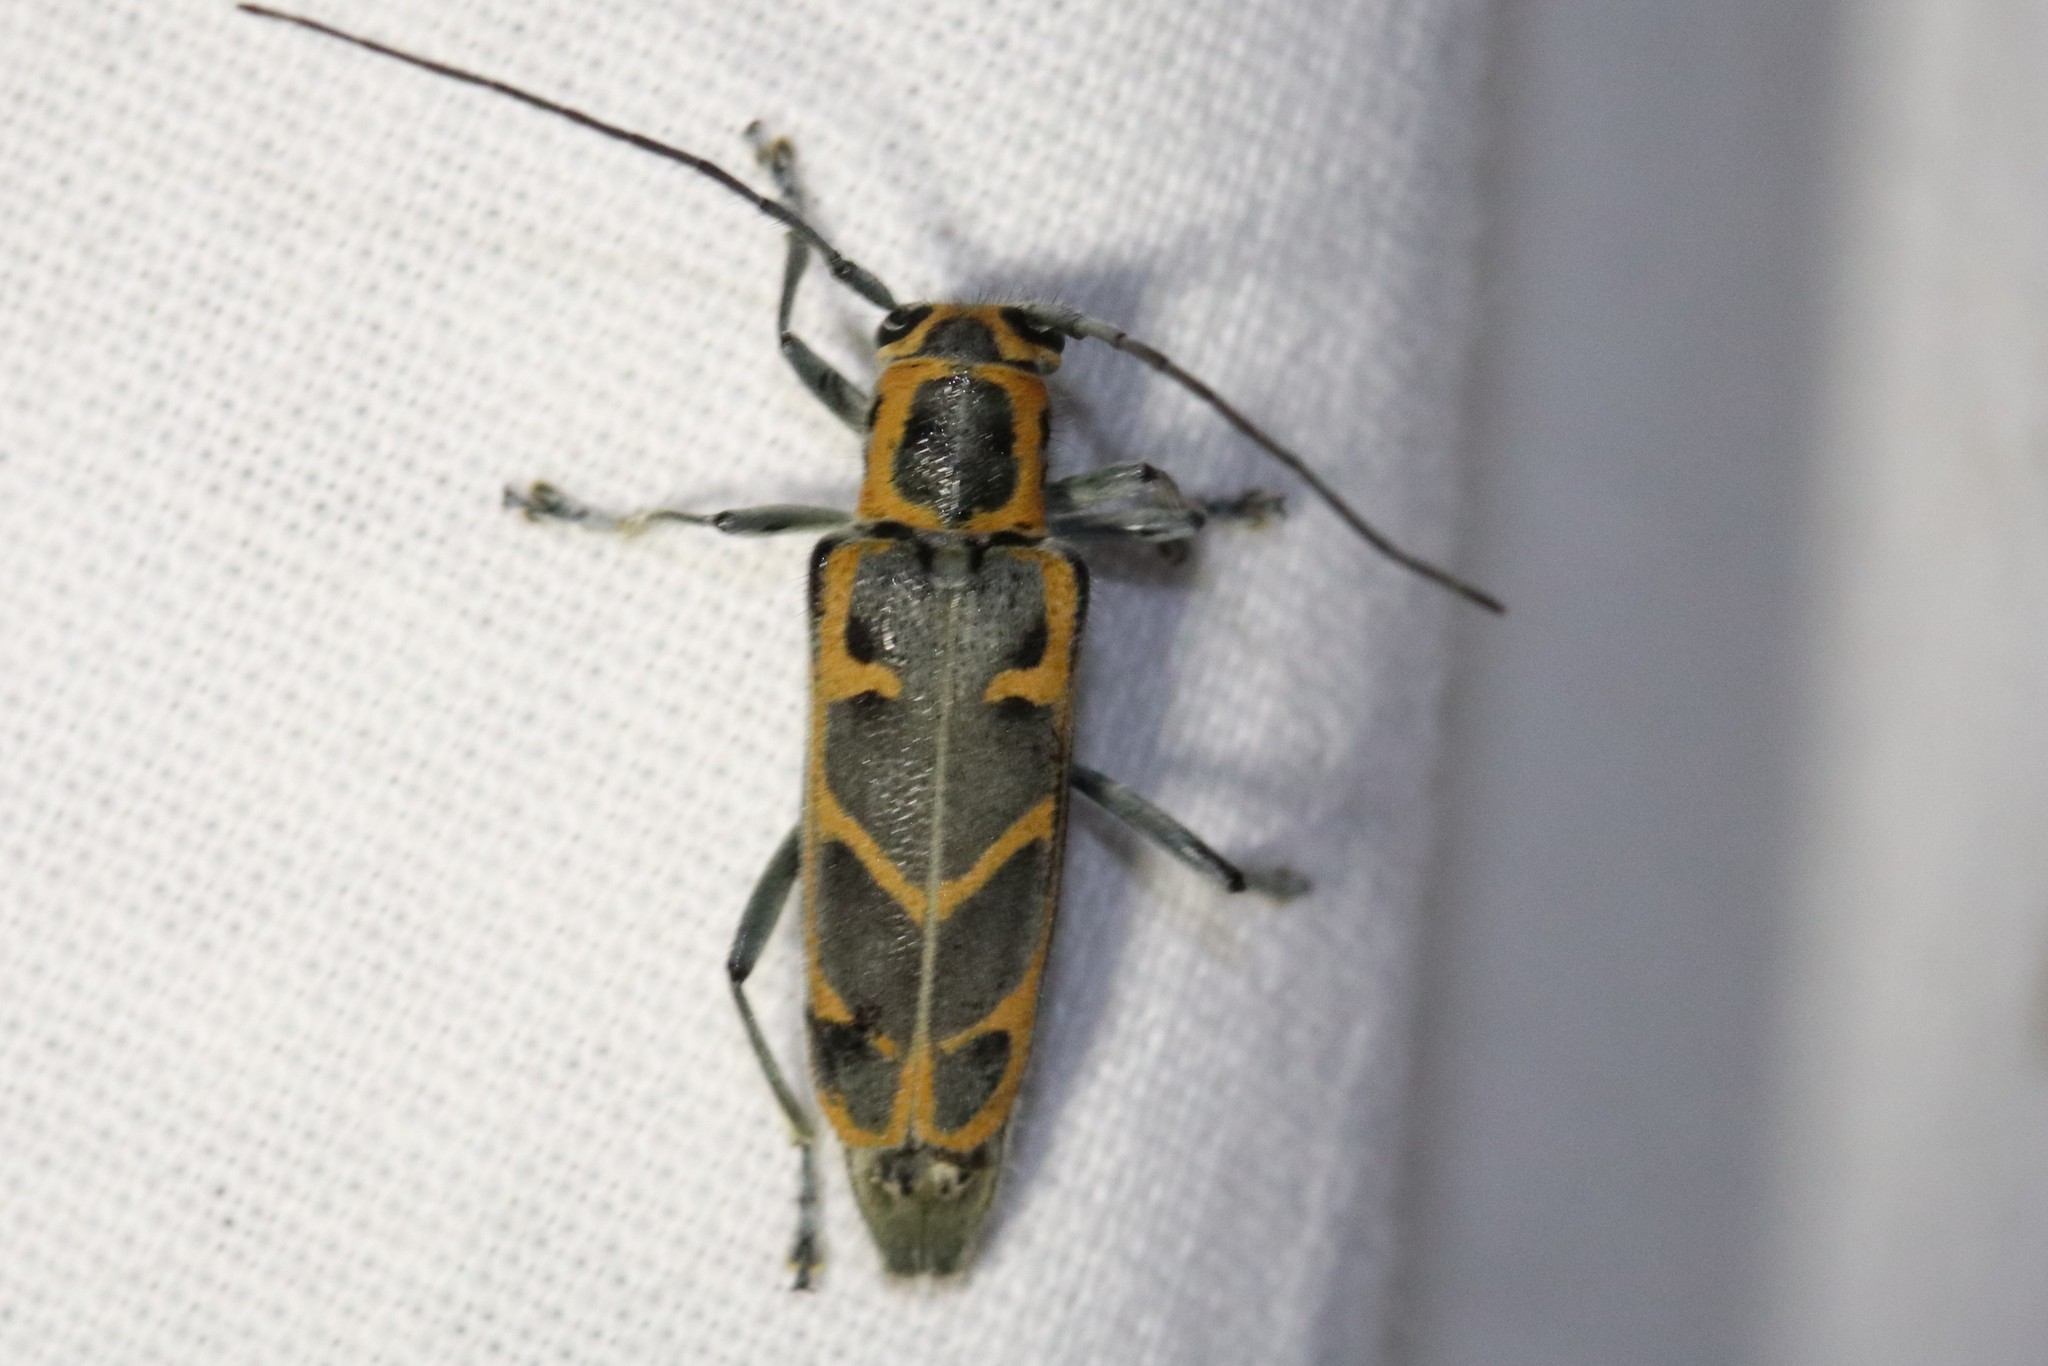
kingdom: Animalia
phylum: Arthropoda
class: Insecta
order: Coleoptera
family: Cerambycidae
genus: Saperda
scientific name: Saperda tridentata
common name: Elm borer
